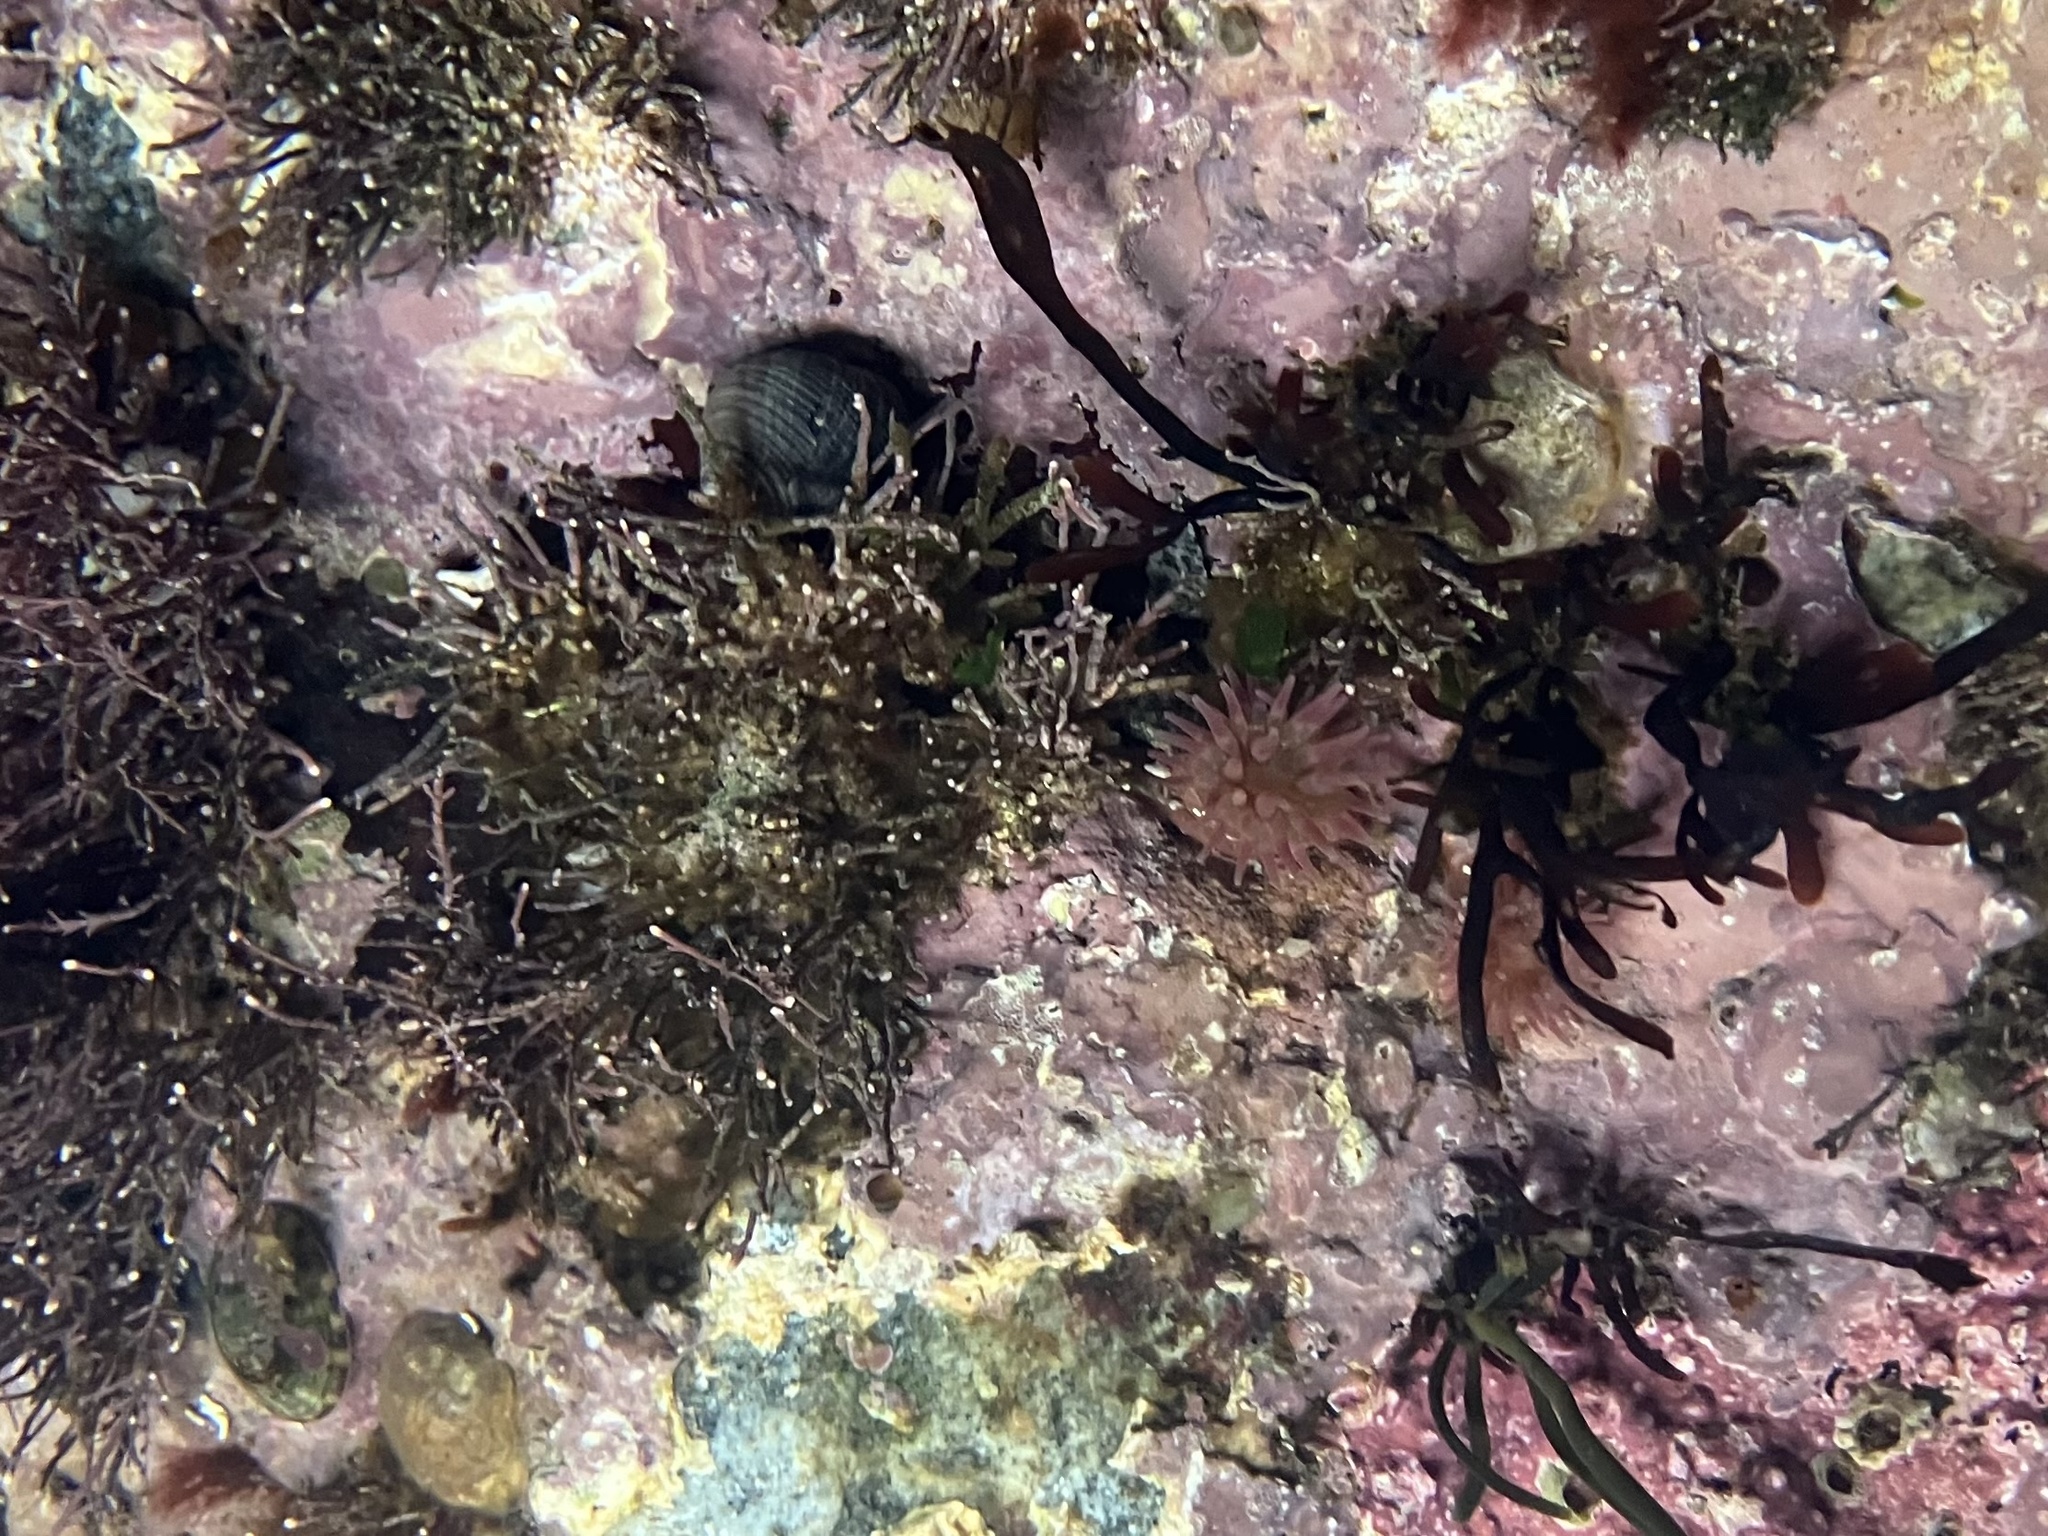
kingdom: Animalia
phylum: Cnidaria
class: Anthozoa
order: Actiniaria
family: Actiniidae
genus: Urticina
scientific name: Urticina crassicornis
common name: Mottled anemone
